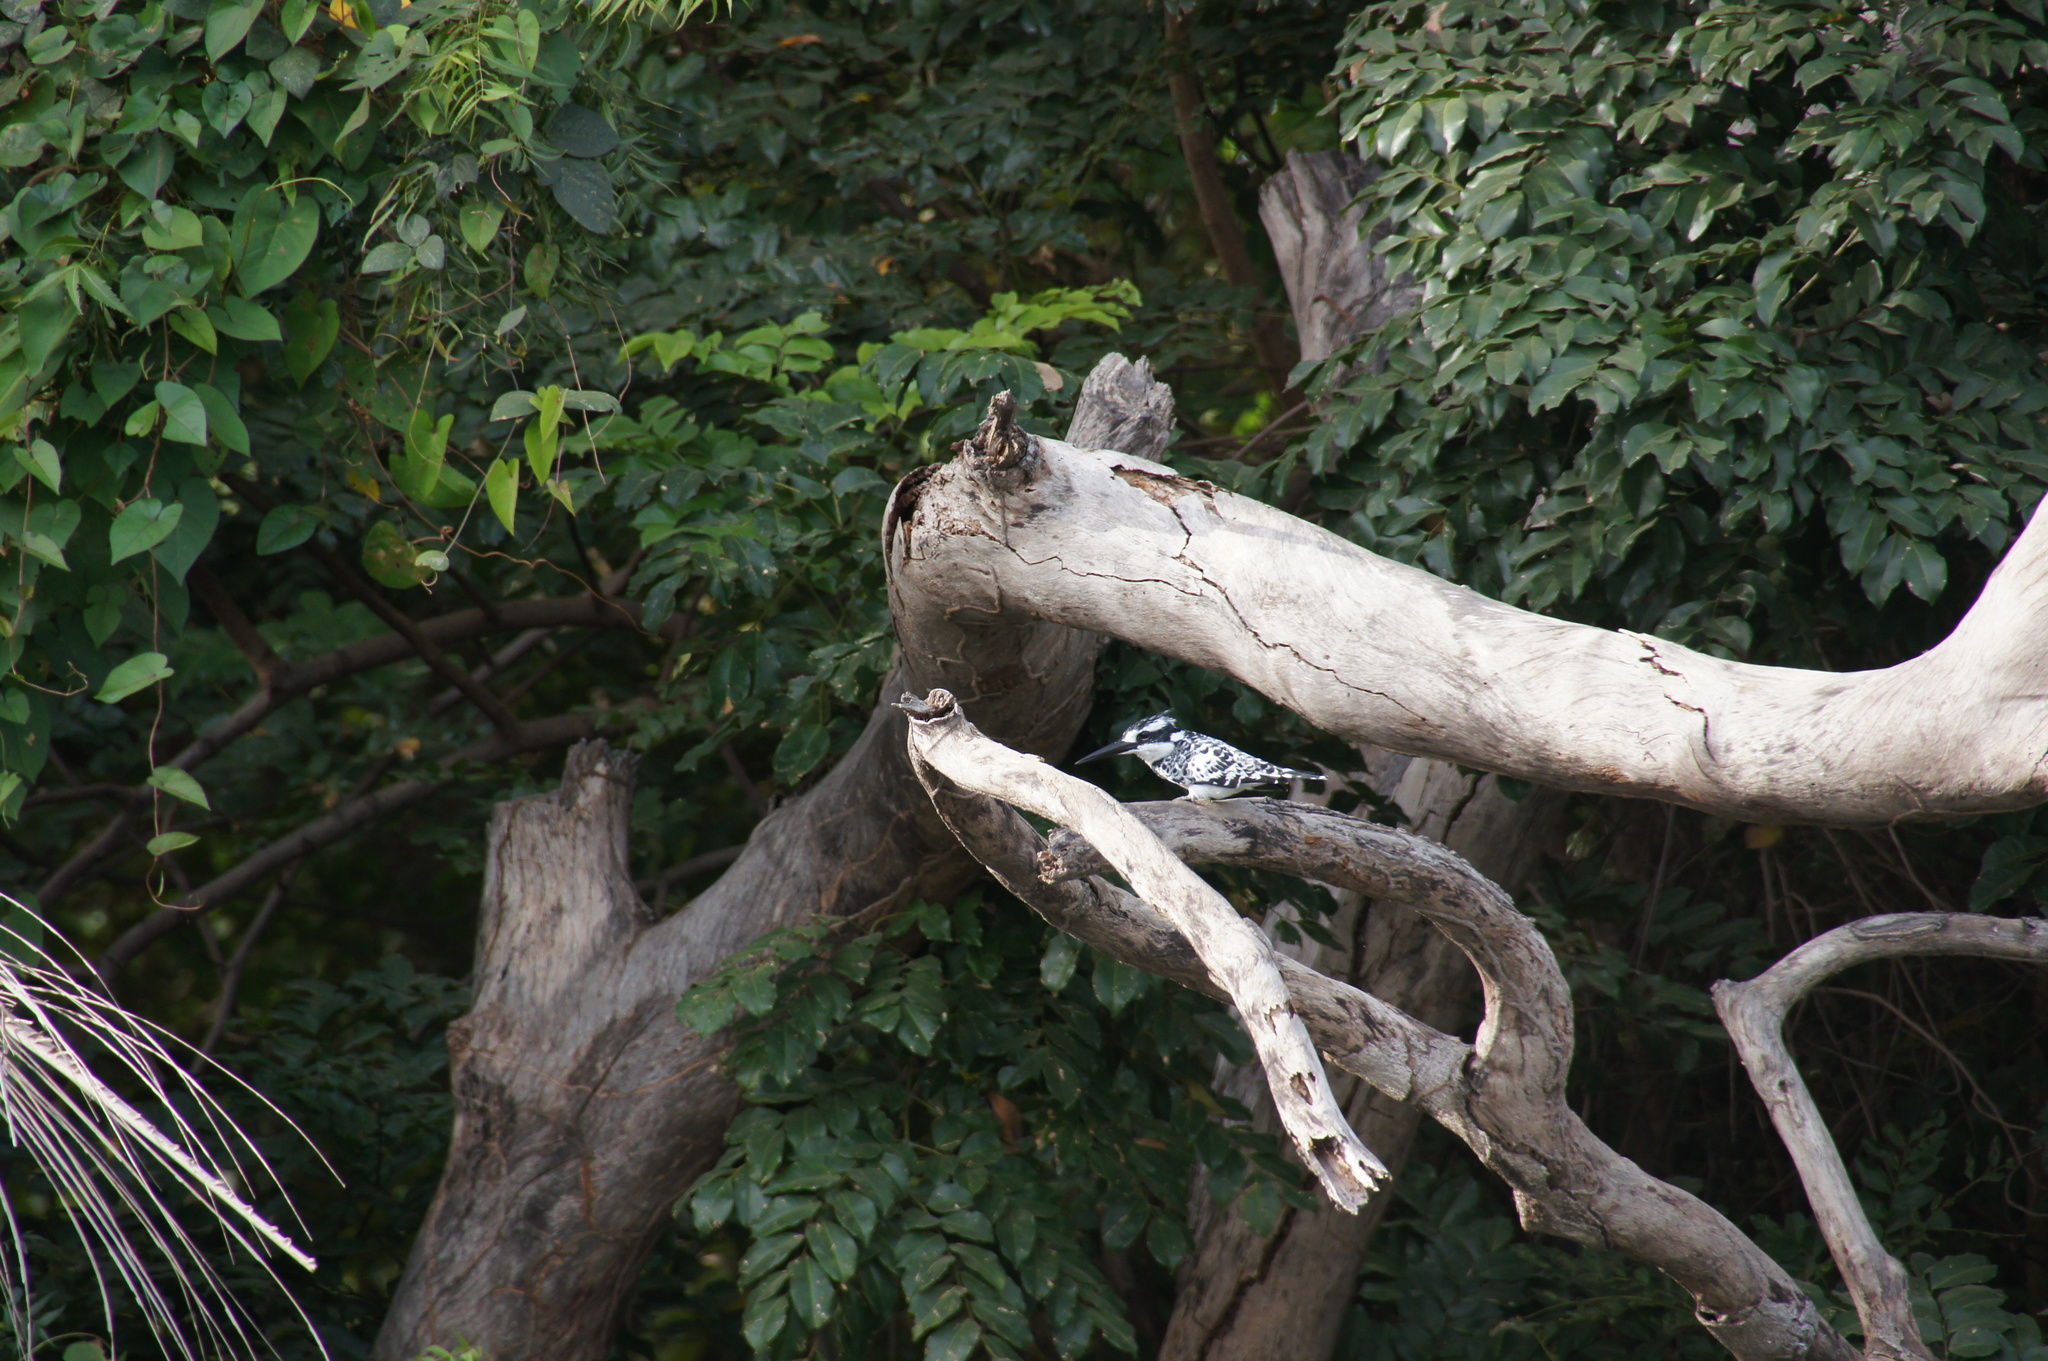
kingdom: Animalia
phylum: Chordata
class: Aves
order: Coraciiformes
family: Alcedinidae
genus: Ceryle
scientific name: Ceryle rudis
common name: Pied kingfisher
